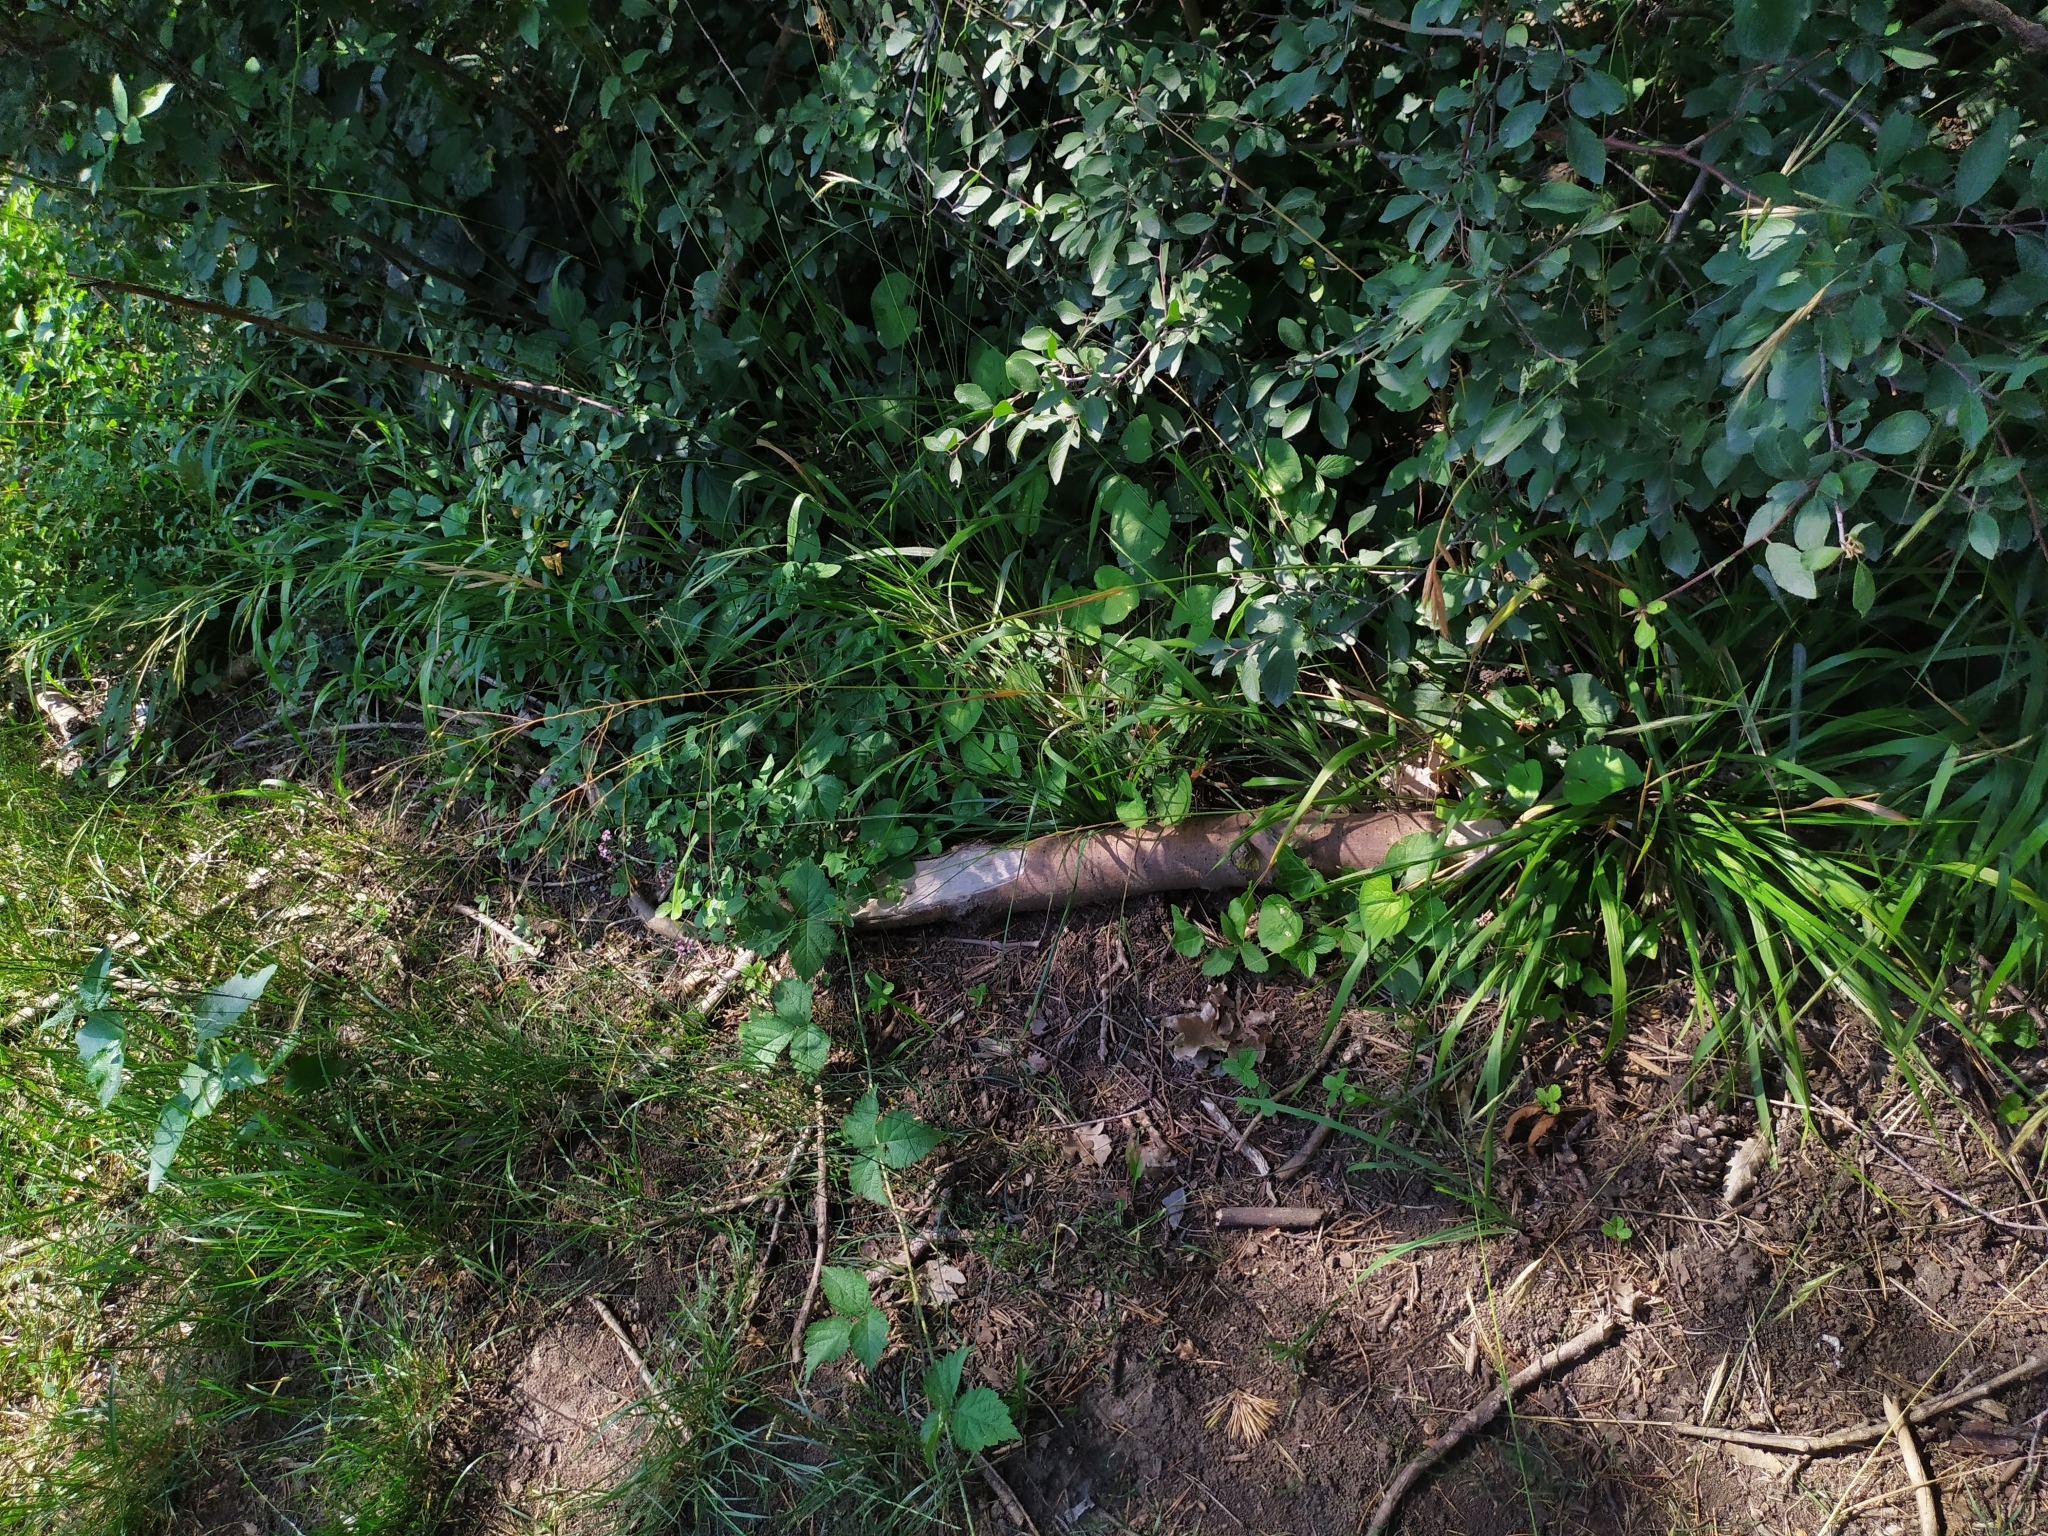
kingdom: Plantae
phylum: Tracheophyta
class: Liliopsida
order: Poales
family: Poaceae
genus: Melica
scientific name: Melica uniflora
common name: Wood melick
